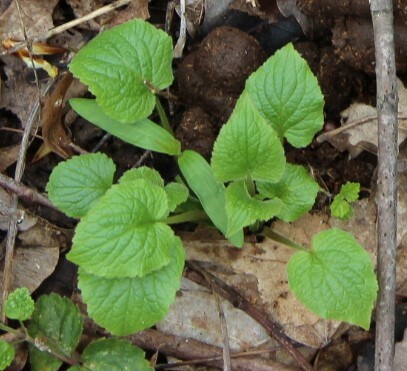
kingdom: Plantae
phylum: Tracheophyta
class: Magnoliopsida
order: Asterales
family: Campanulaceae
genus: Campanula
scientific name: Campanula latifolia
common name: Giant bellflower
